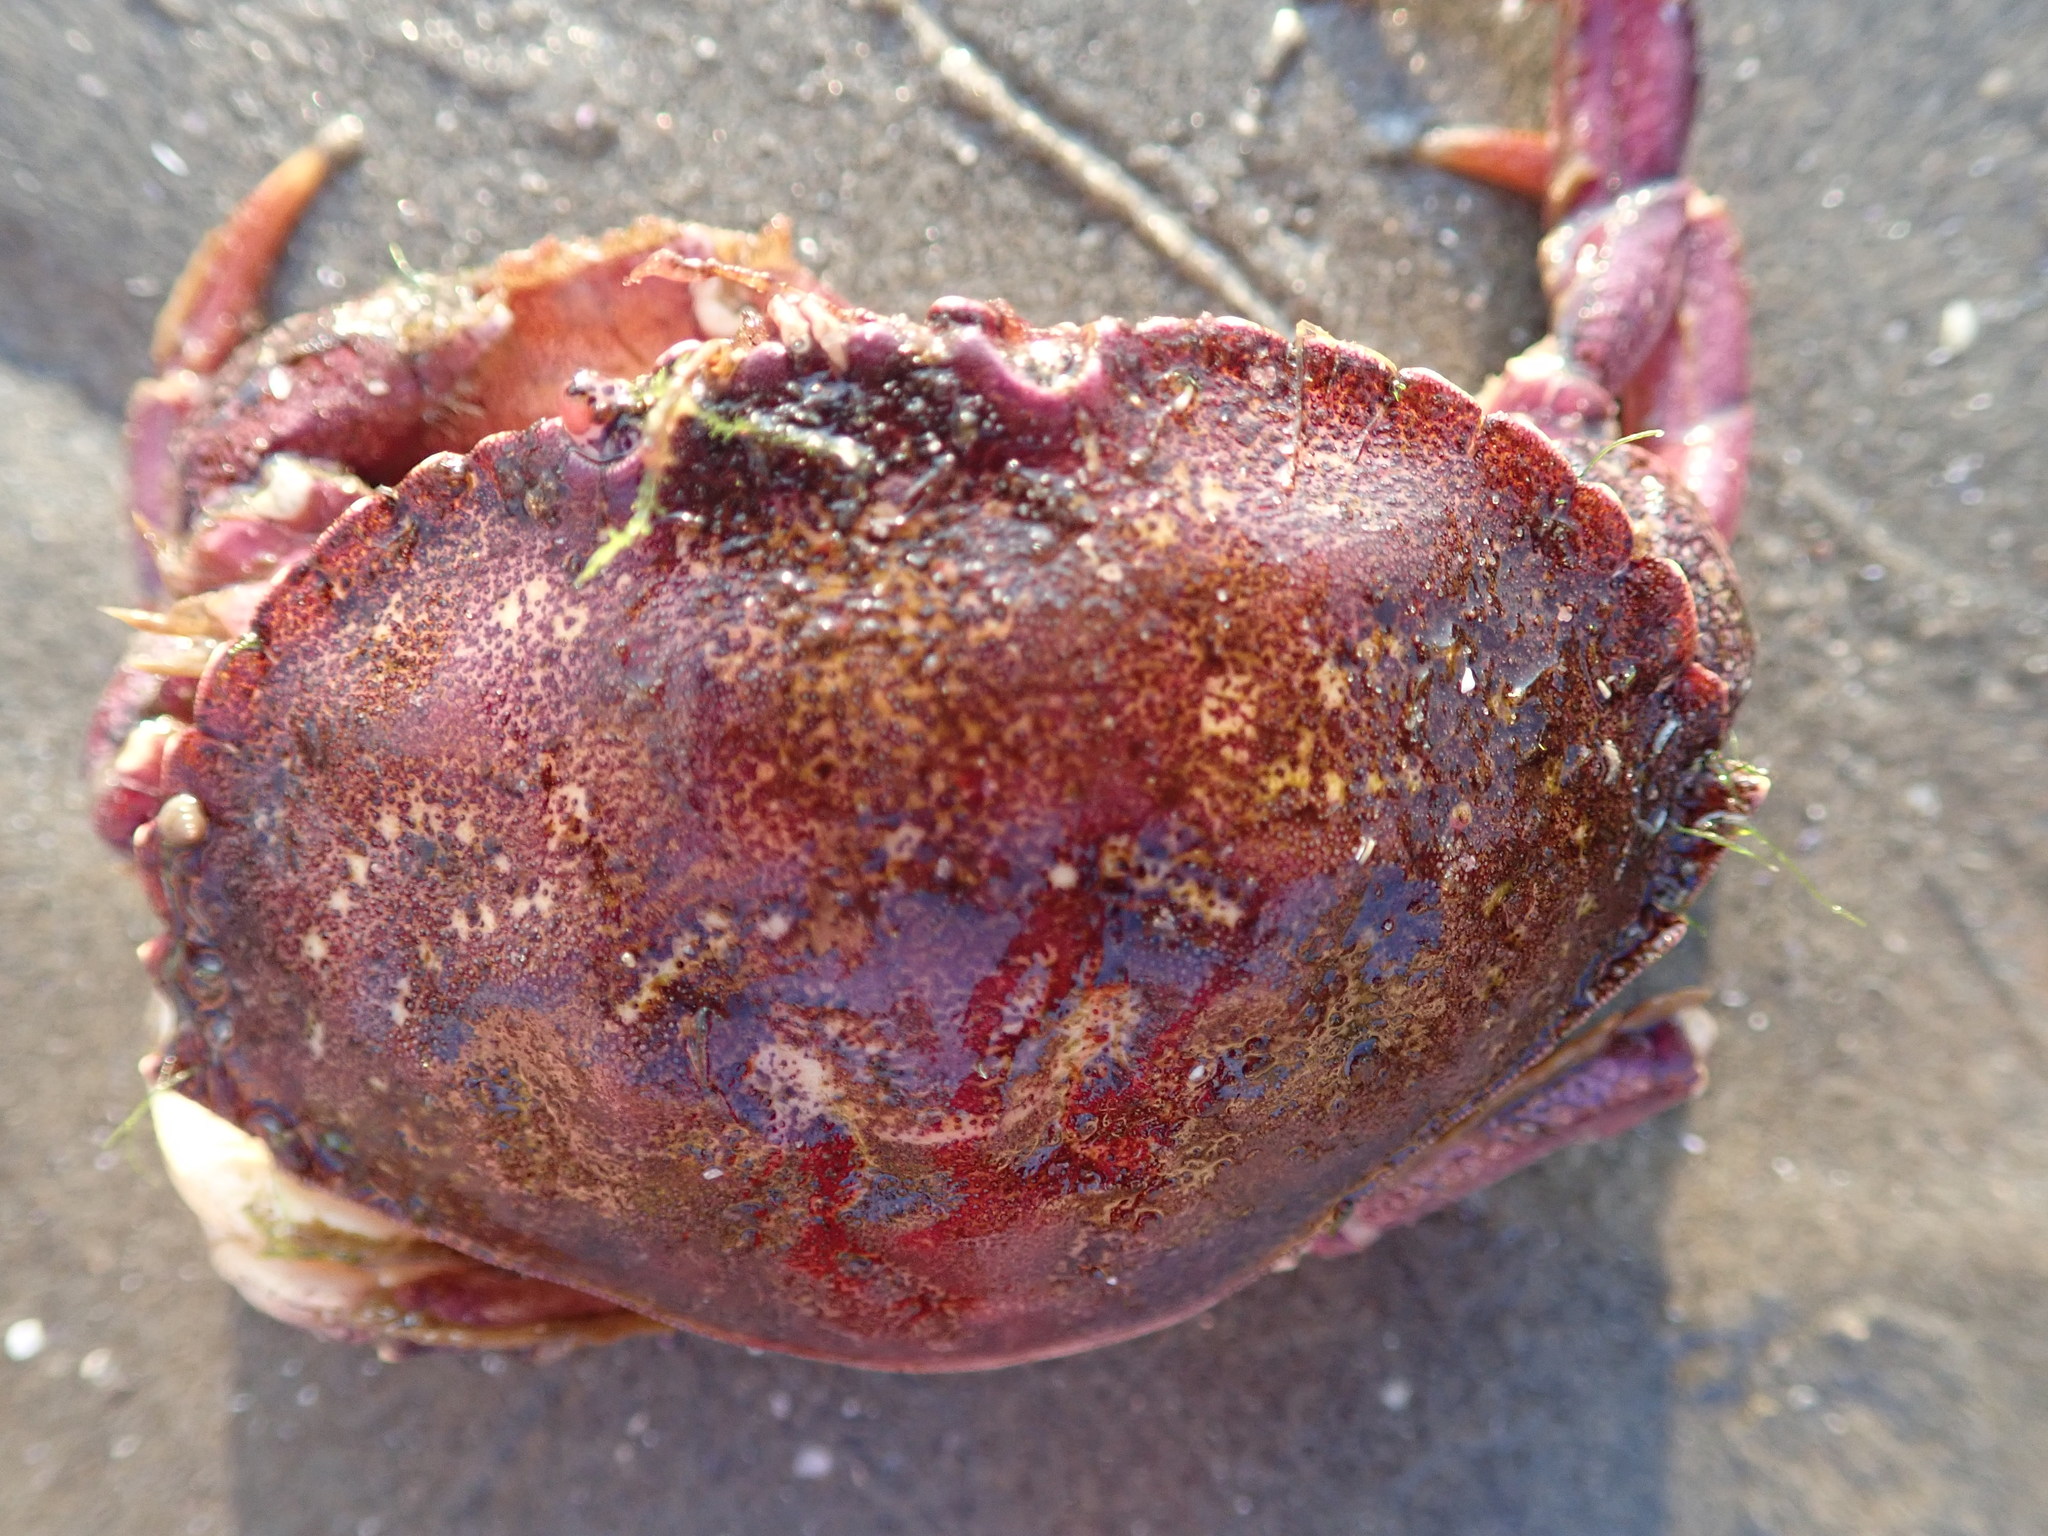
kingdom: Animalia
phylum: Arthropoda
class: Malacostraca
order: Decapoda
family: Cancridae
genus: Cancer
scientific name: Cancer irroratus
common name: Atlantic rock crab
